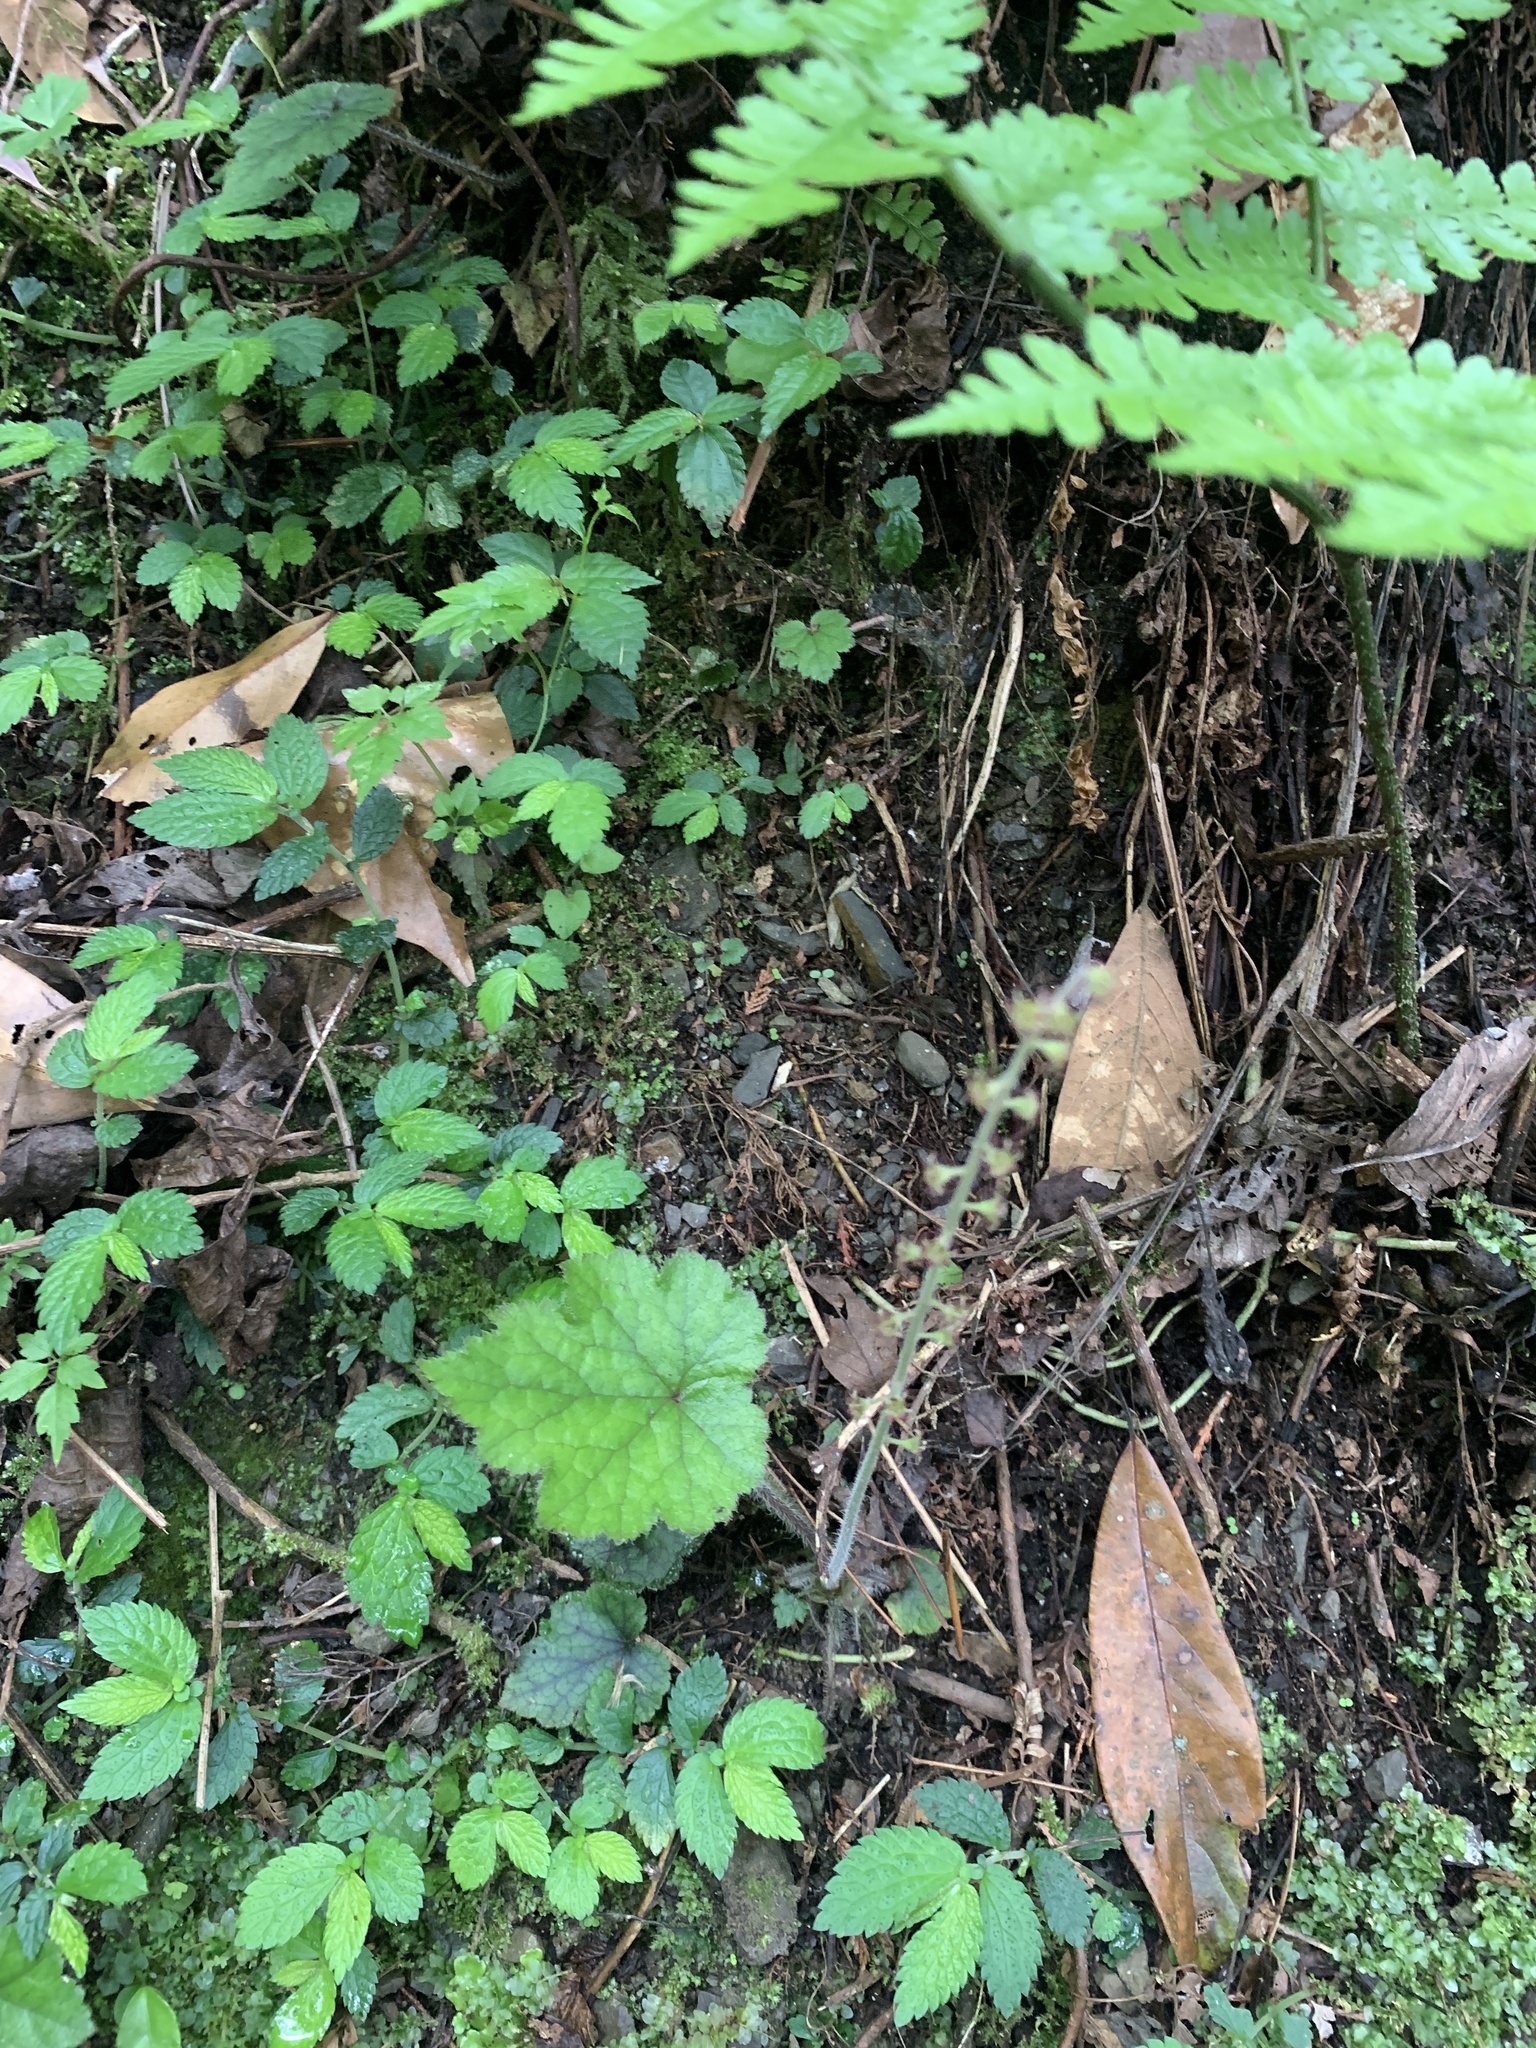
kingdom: Plantae
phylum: Tracheophyta
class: Magnoliopsida
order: Saxifragales
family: Saxifragaceae
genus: Asimitellaria
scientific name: Asimitellaria formosana
